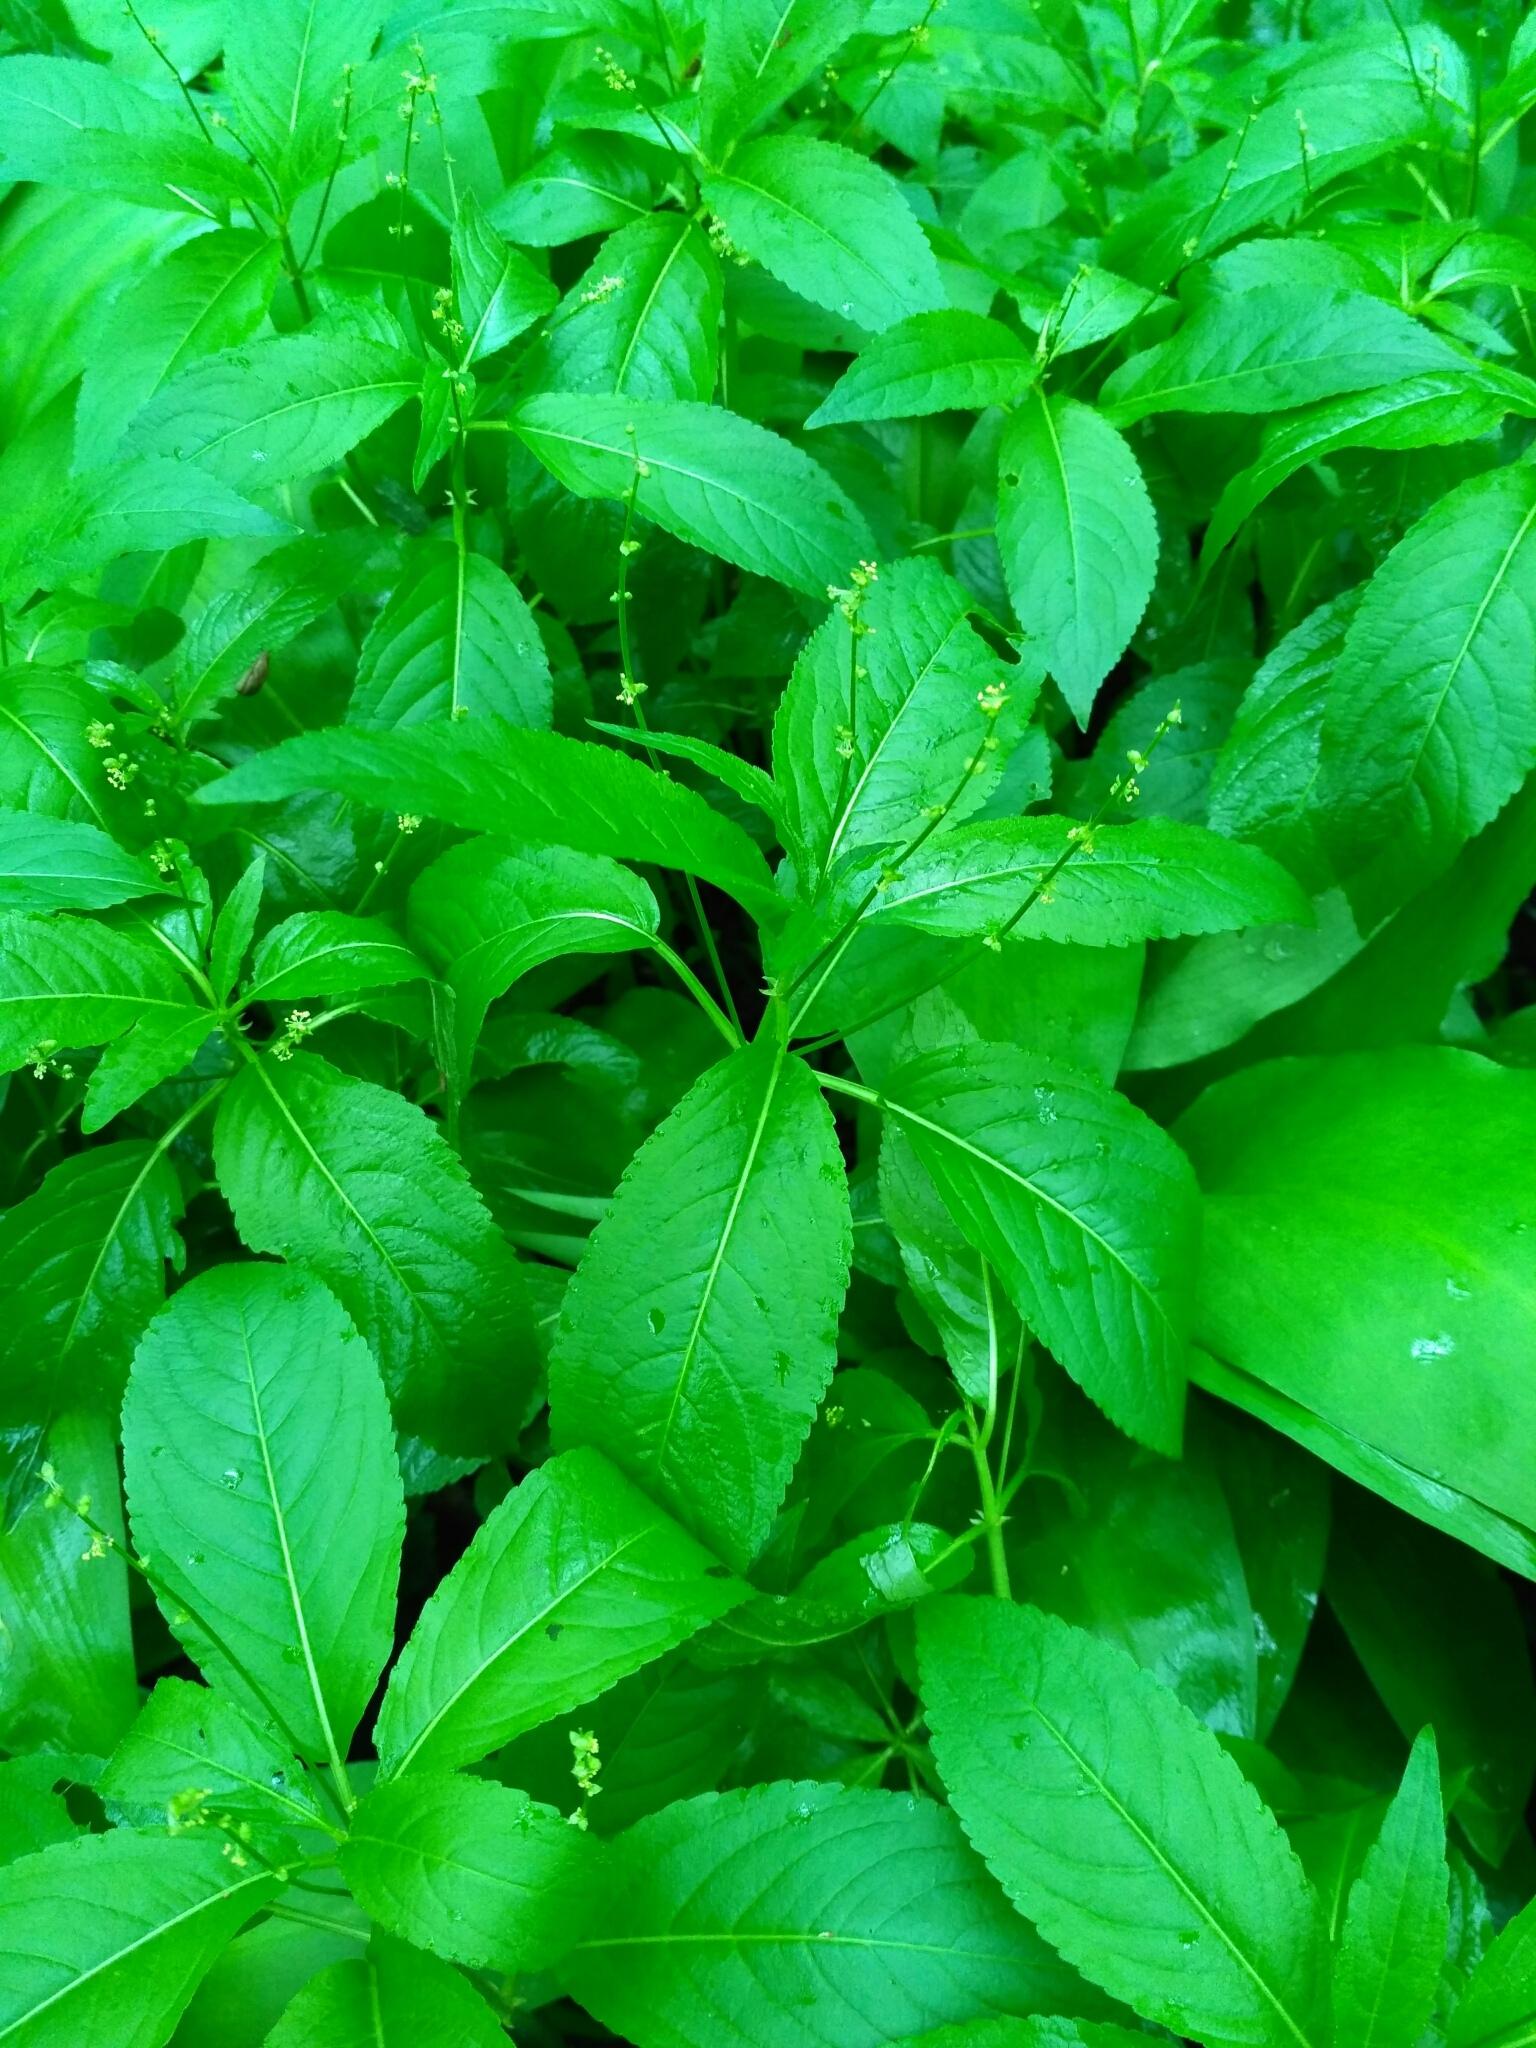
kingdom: Plantae
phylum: Tracheophyta
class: Magnoliopsida
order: Malpighiales
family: Euphorbiaceae
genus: Mercurialis
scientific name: Mercurialis perennis
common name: Dog mercury
